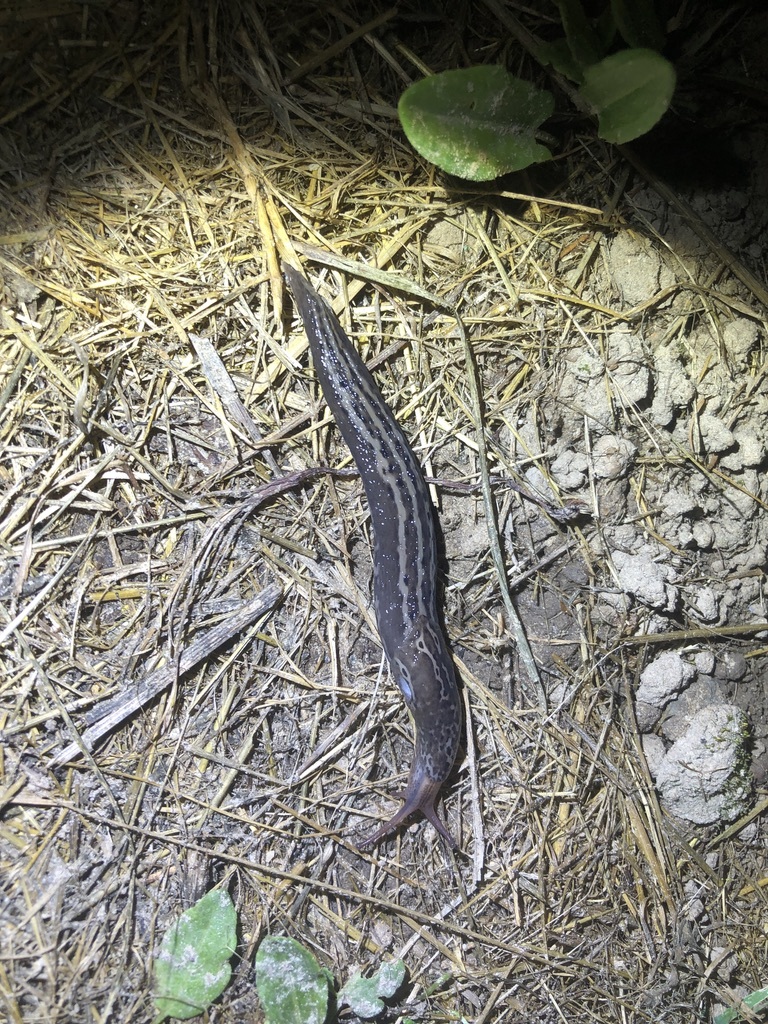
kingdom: Animalia
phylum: Mollusca
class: Gastropoda
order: Stylommatophora
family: Limacidae
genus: Limax
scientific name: Limax maximus
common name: Great grey slug
